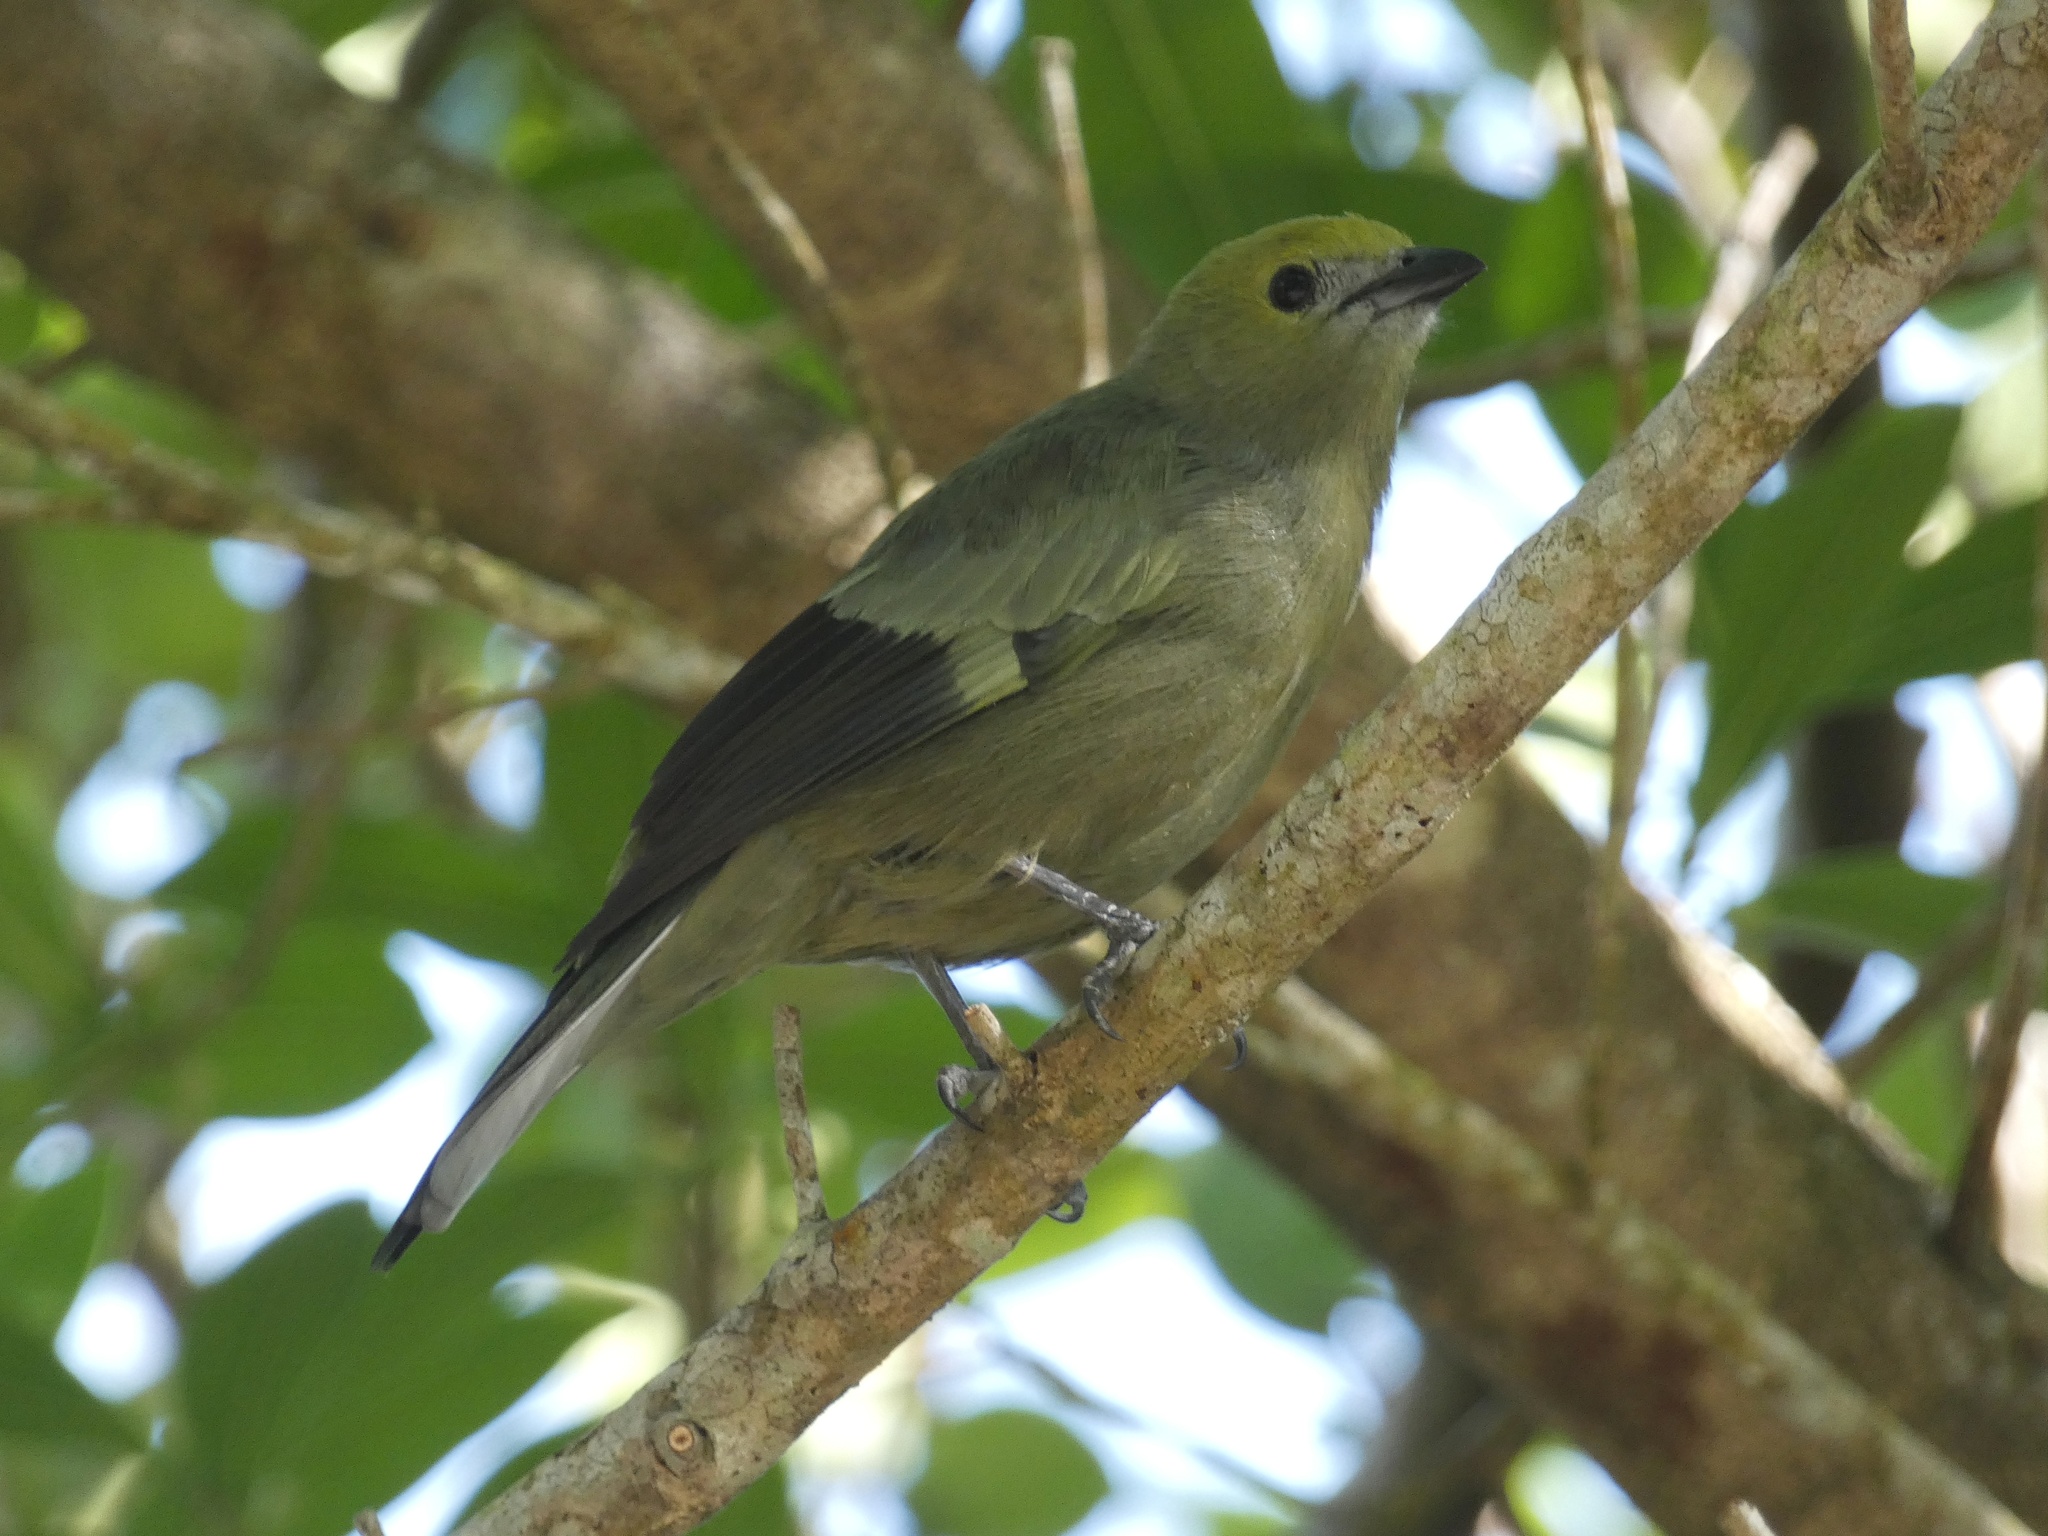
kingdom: Animalia
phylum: Chordata
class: Aves
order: Passeriformes
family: Thraupidae
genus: Thraupis
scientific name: Thraupis palmarum
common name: Palm tanager
